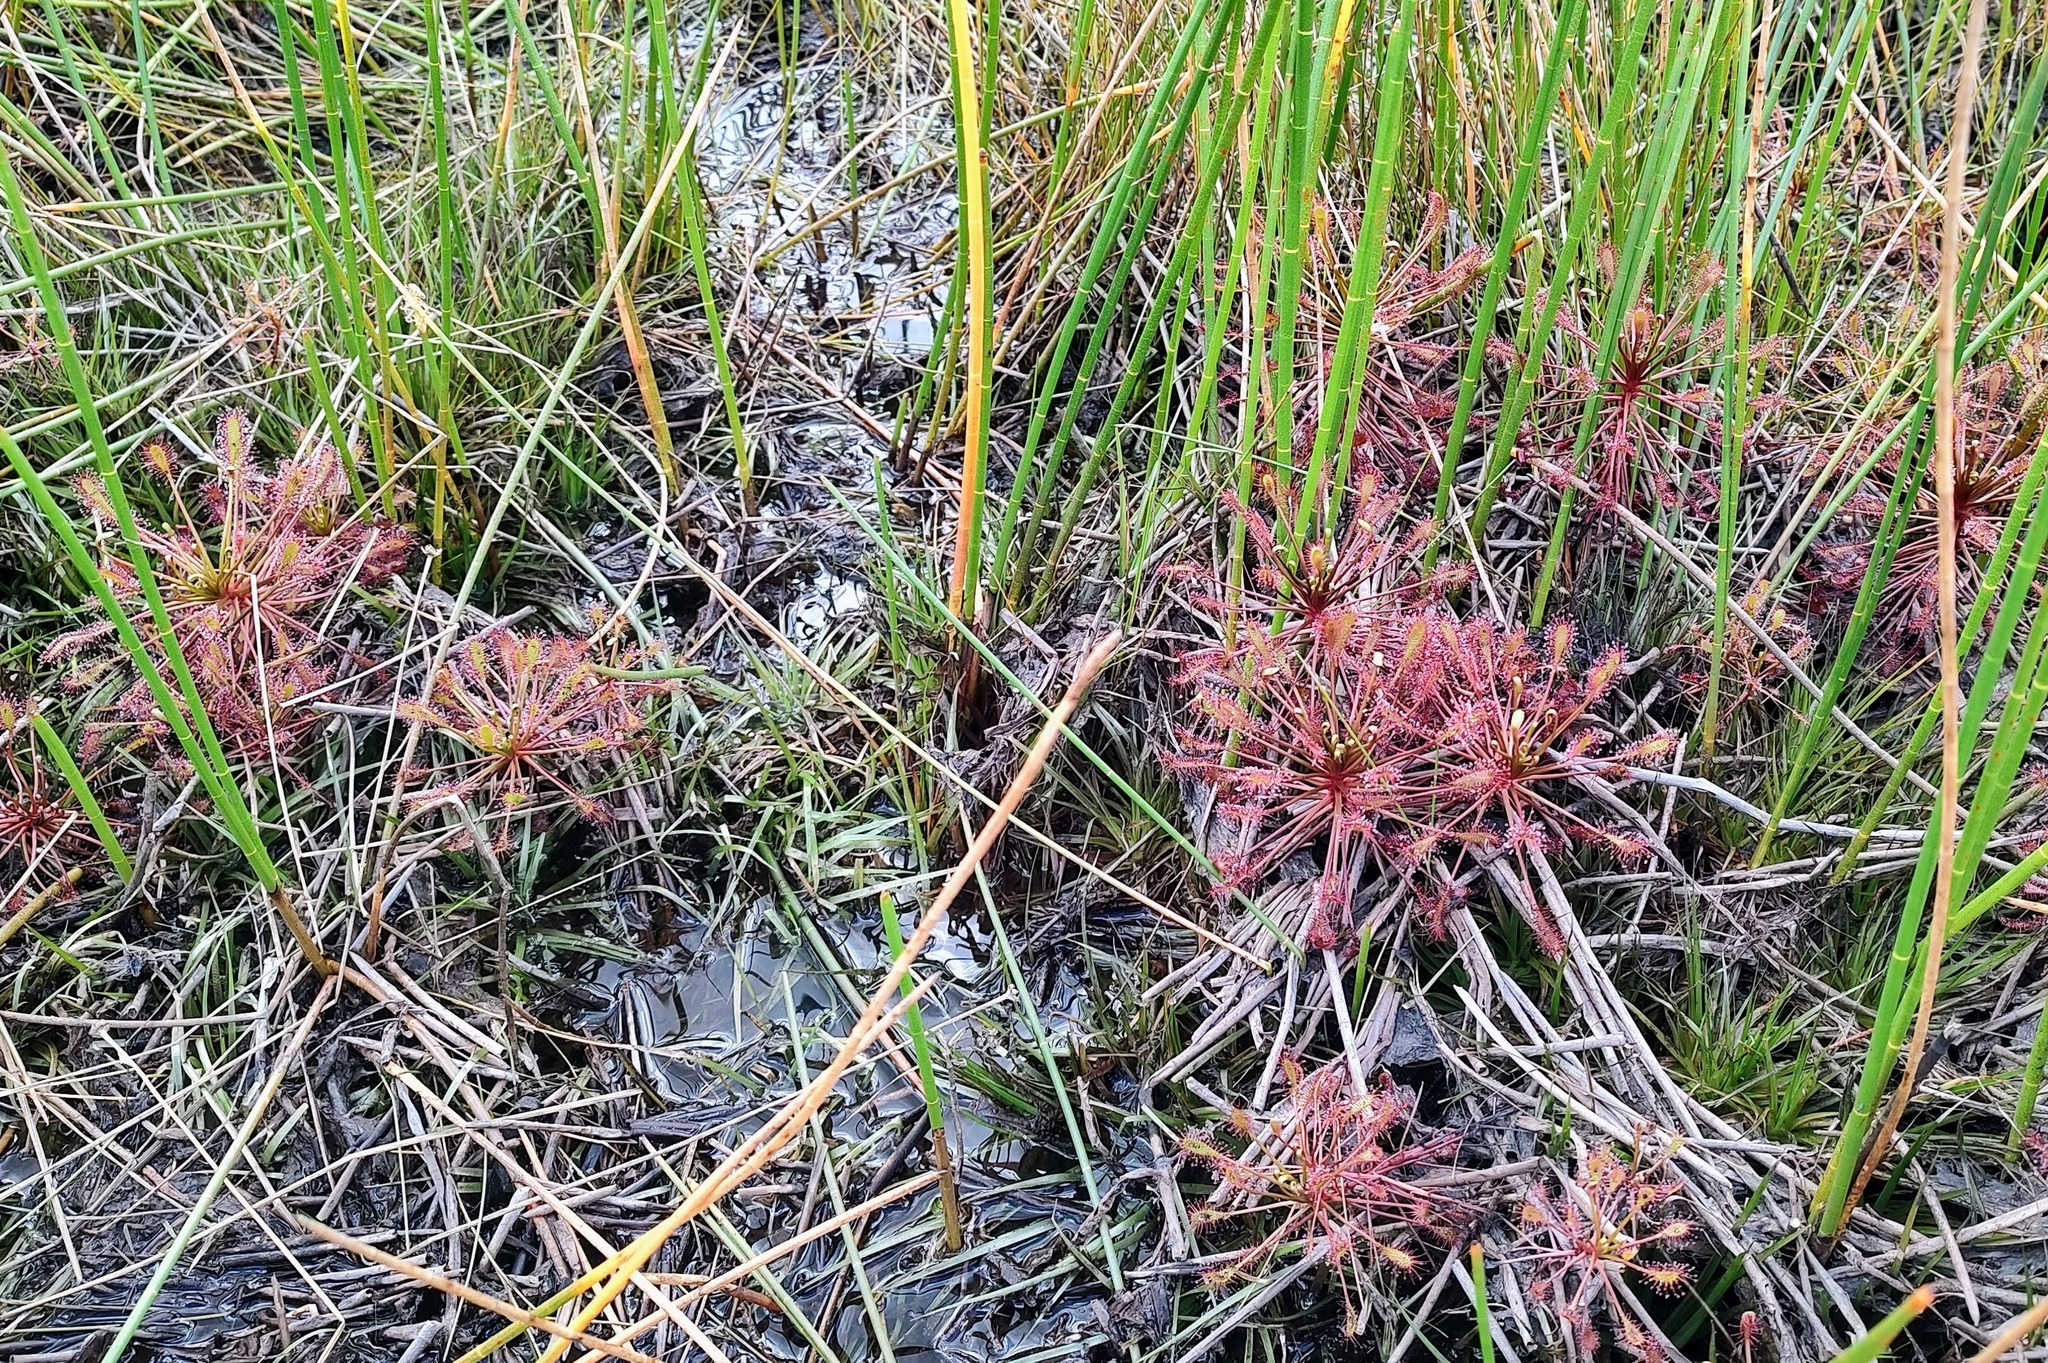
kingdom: Plantae
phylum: Tracheophyta
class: Magnoliopsida
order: Caryophyllales
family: Droseraceae
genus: Drosera
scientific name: Drosera intermedia
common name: Oblong-leaved sundew
